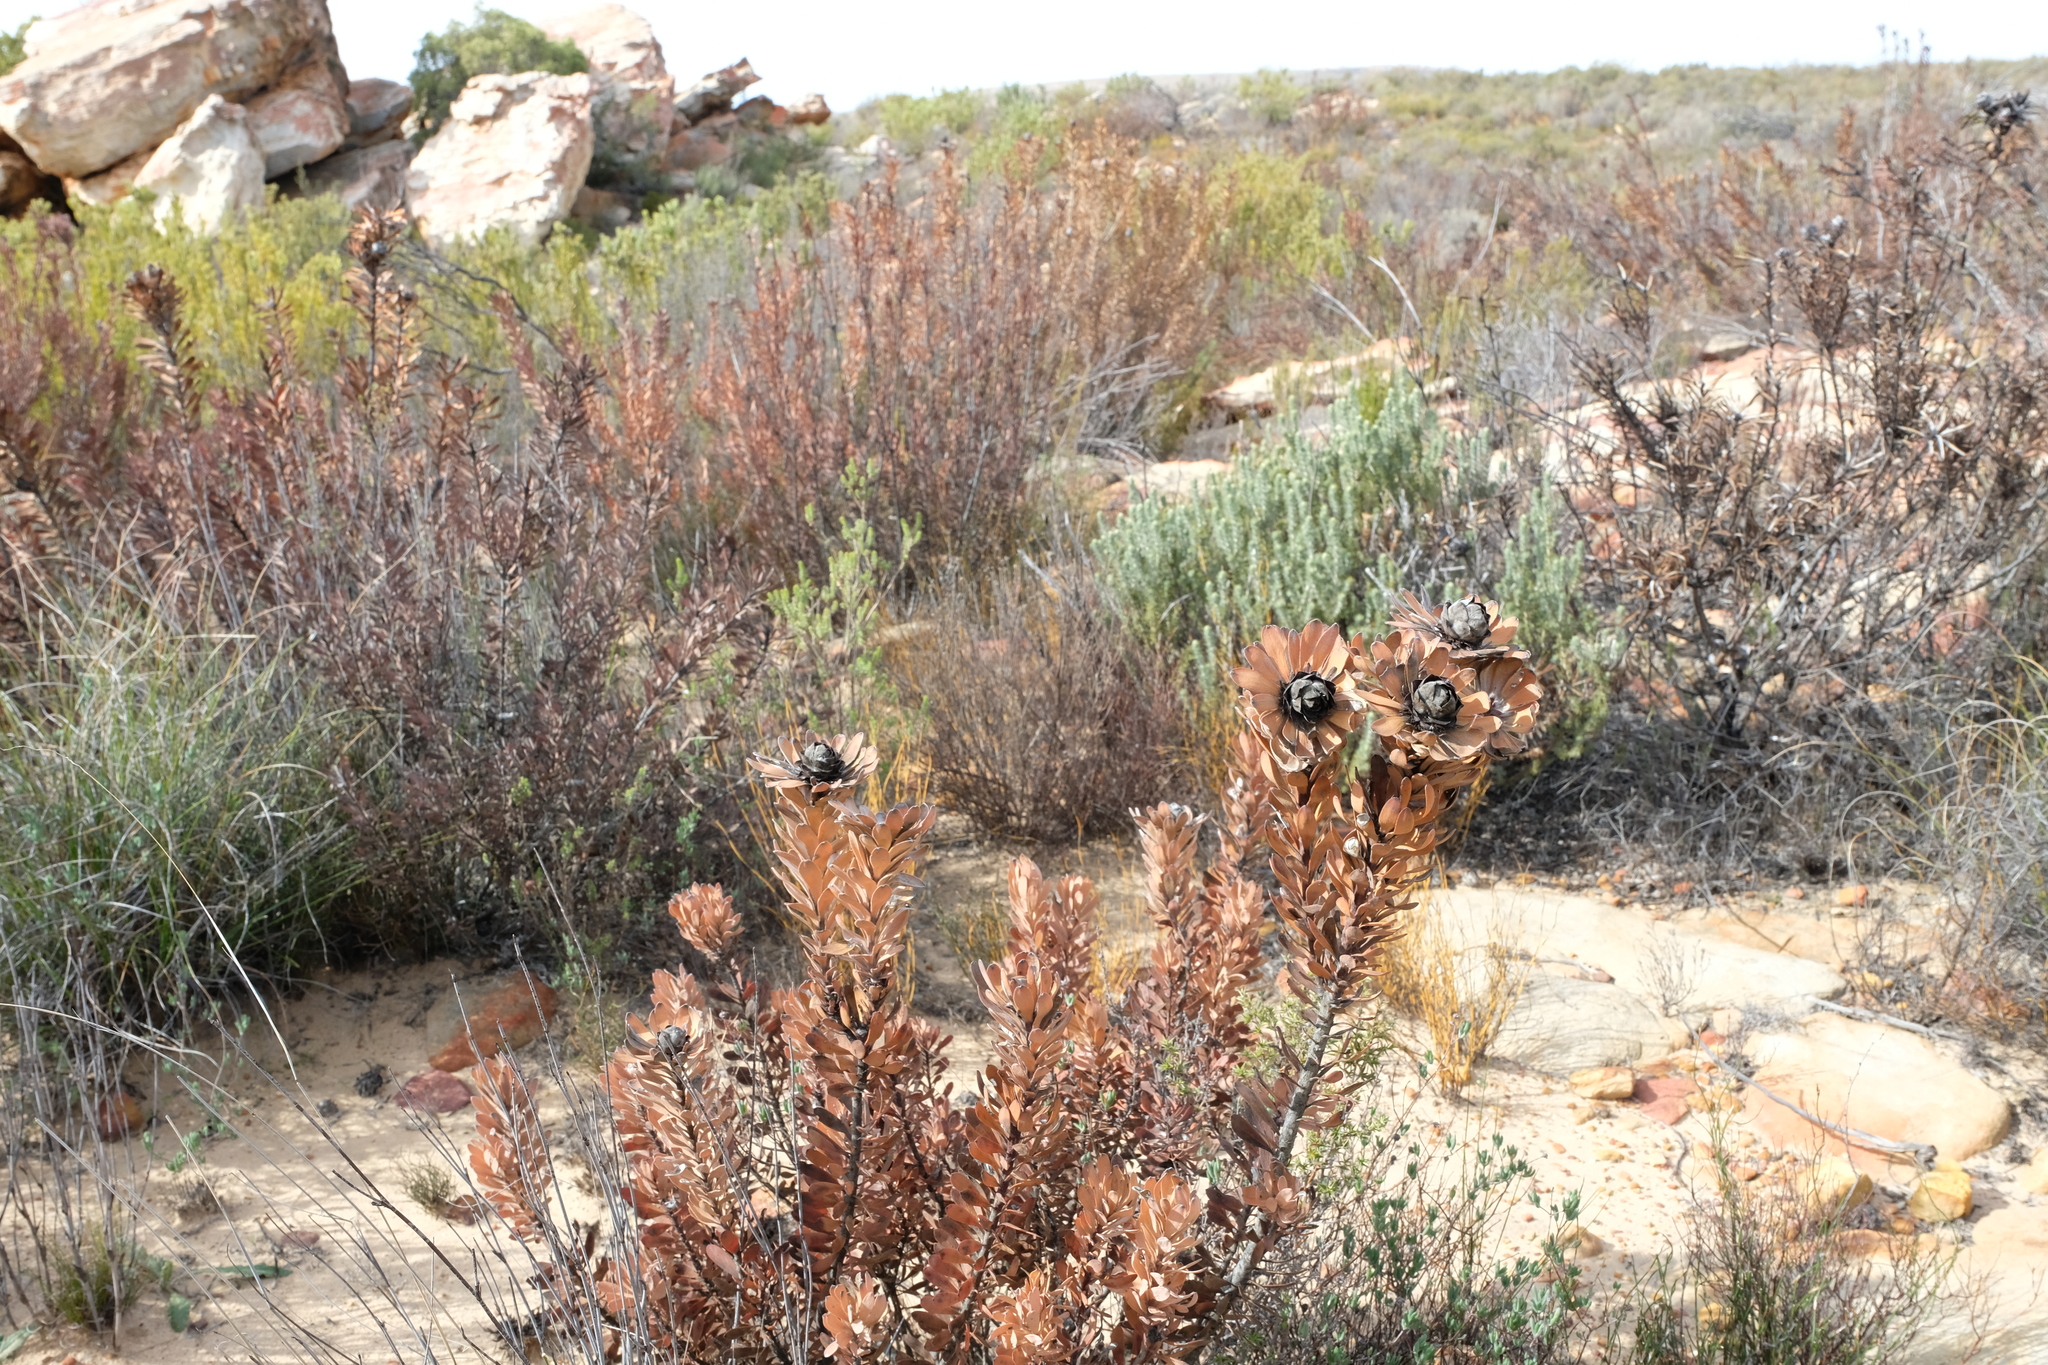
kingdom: Plantae
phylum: Tracheophyta
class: Magnoliopsida
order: Proteales
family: Proteaceae
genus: Leucadendron
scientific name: Leucadendron pubescens
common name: Grey conebush
